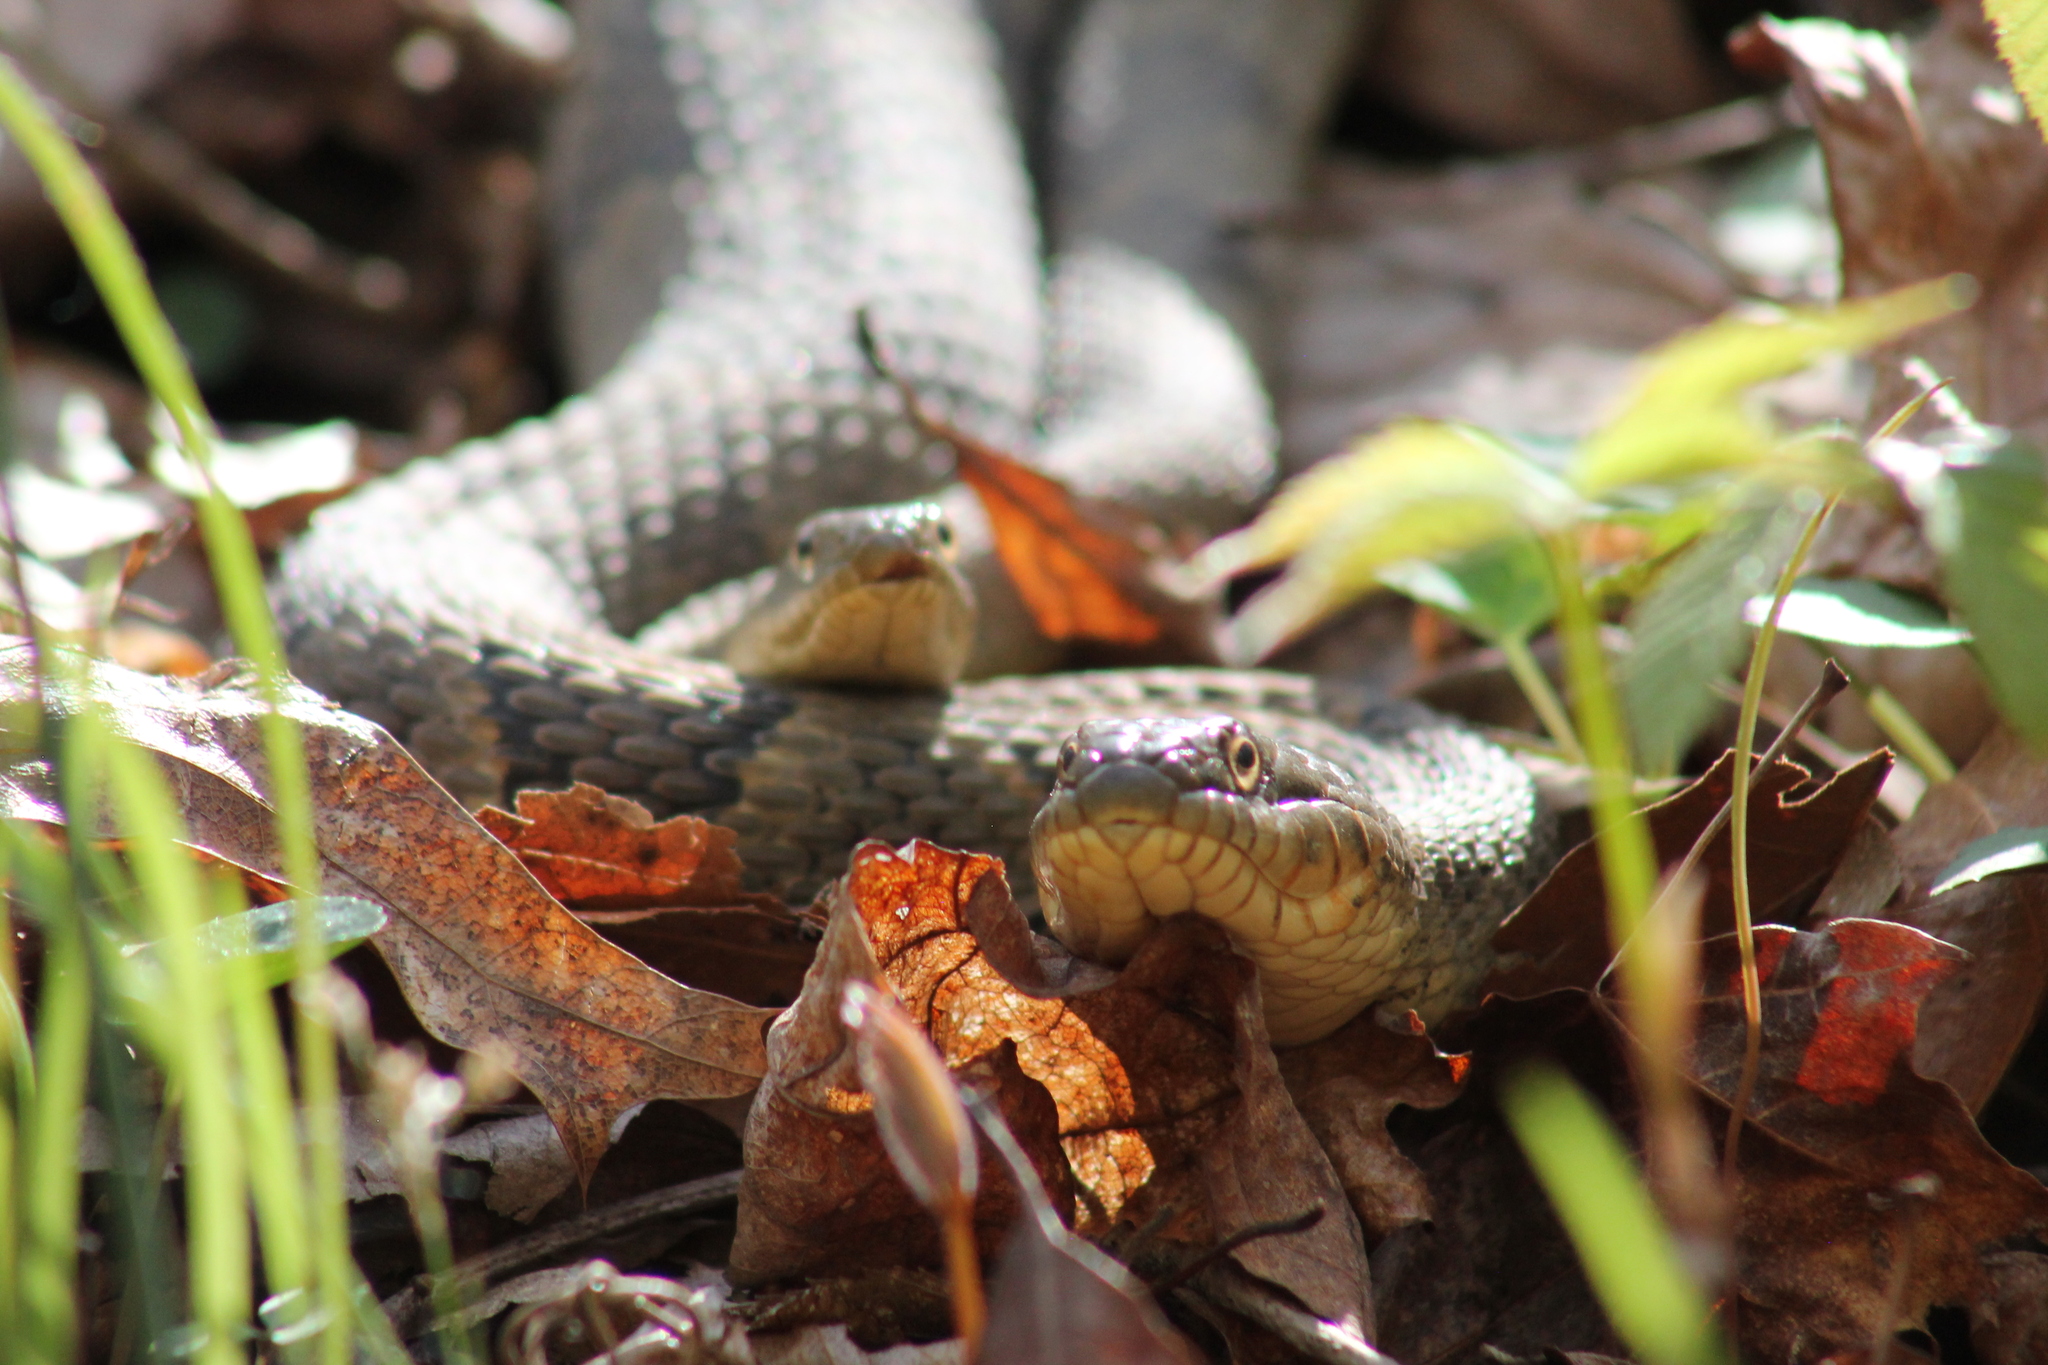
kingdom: Animalia
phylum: Chordata
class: Squamata
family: Colubridae
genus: Nerodia
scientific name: Nerodia sipedon
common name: Northern water snake
